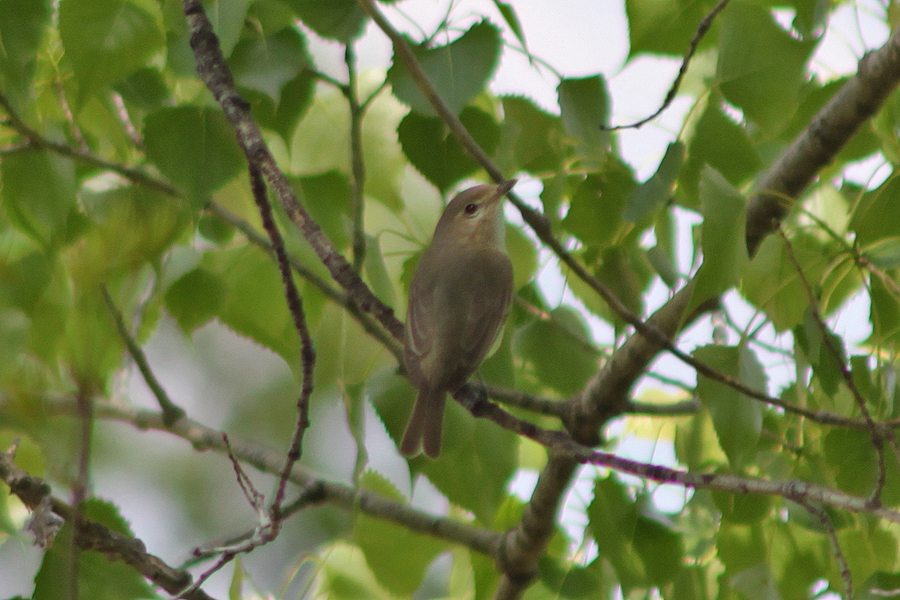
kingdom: Animalia
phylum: Chordata
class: Aves
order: Passeriformes
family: Vireonidae
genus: Vireo
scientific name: Vireo gilvus
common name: Warbling vireo
